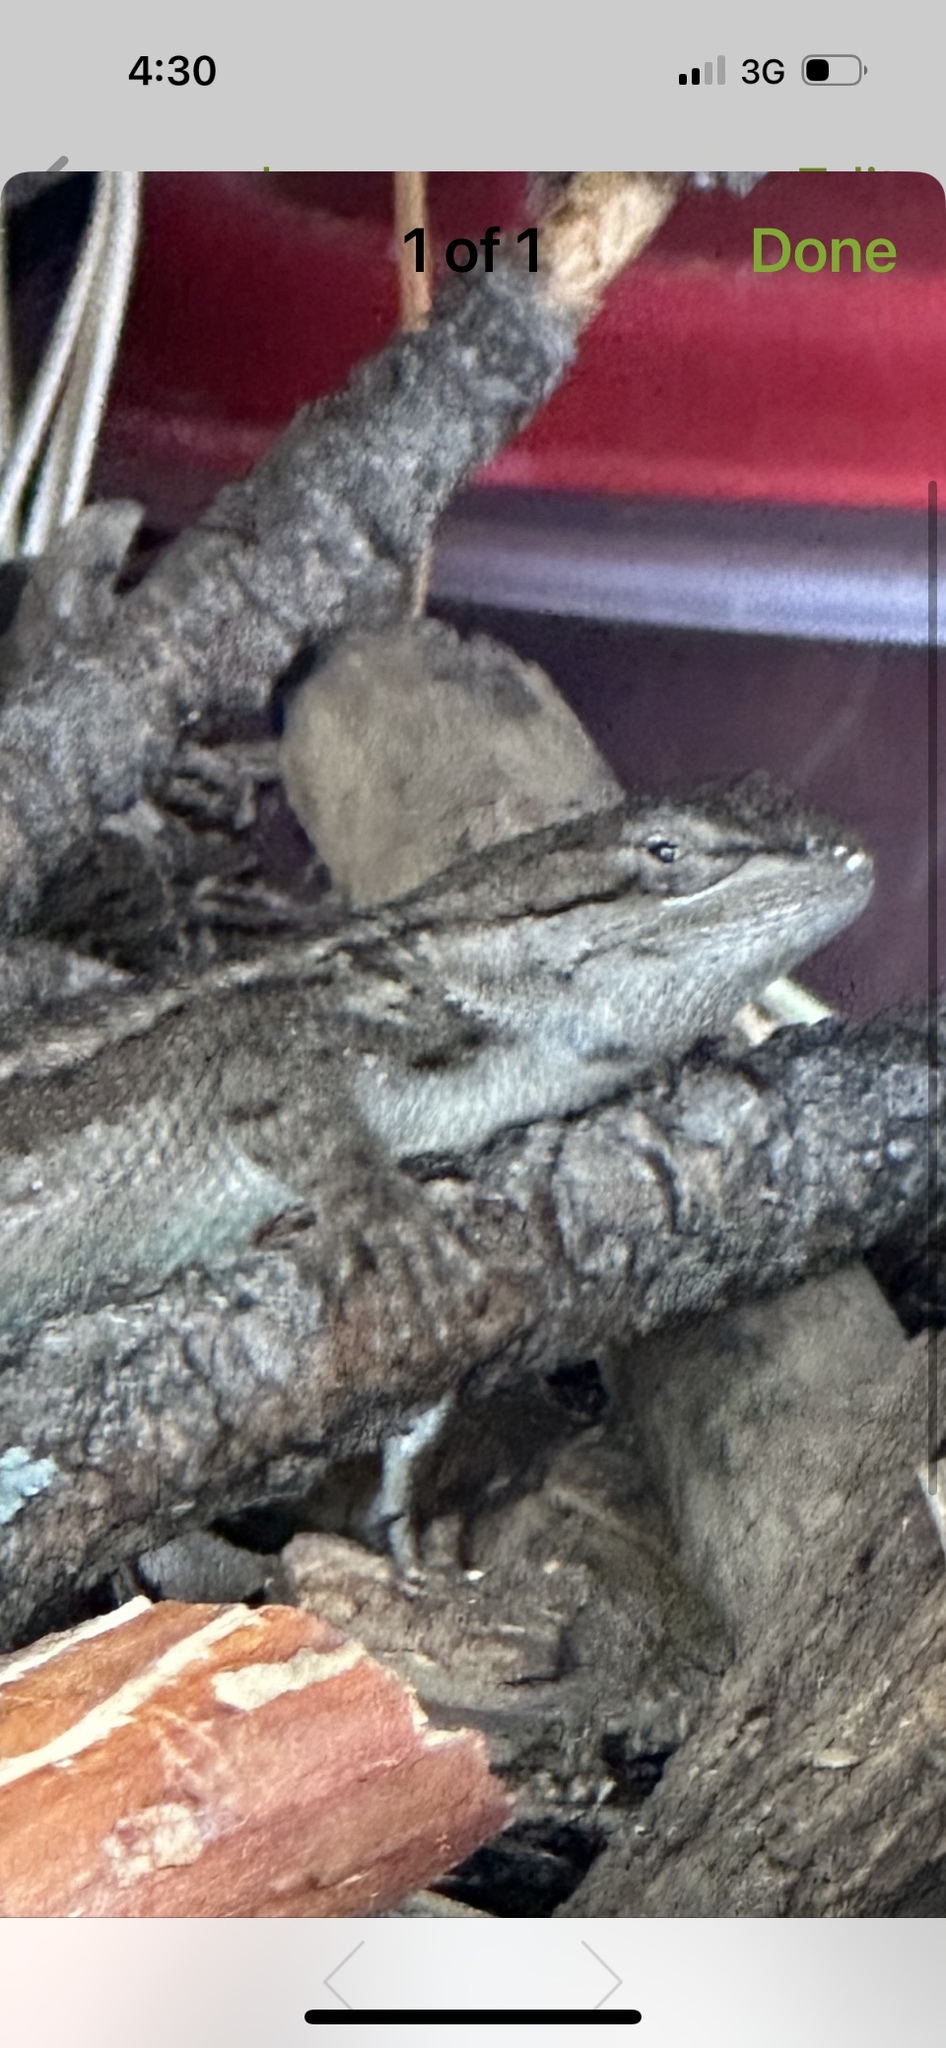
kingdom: Animalia
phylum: Chordata
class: Squamata
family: Phrynosomatidae
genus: Sceloporus
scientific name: Sceloporus tristichus
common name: Plateau fence lizard
